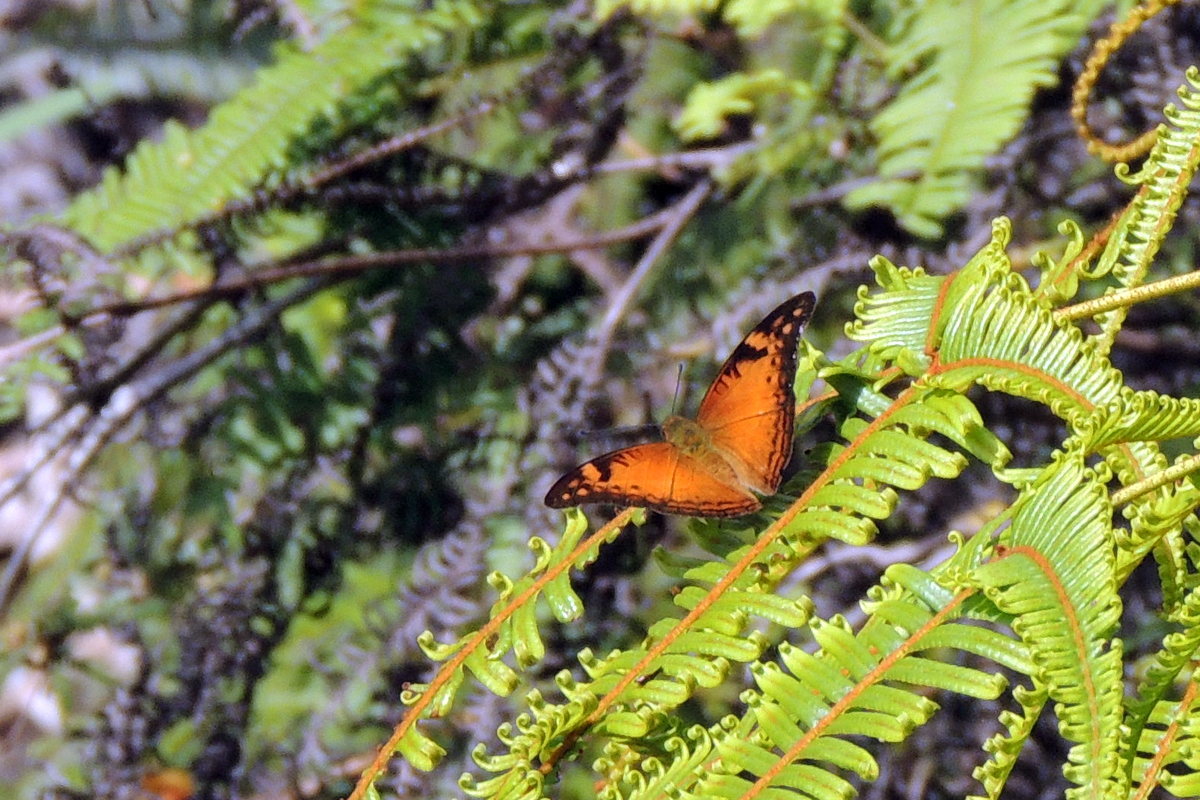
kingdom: Animalia
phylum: Arthropoda
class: Insecta
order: Lepidoptera
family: Nymphalidae
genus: Smerina
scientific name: Smerina manoro
